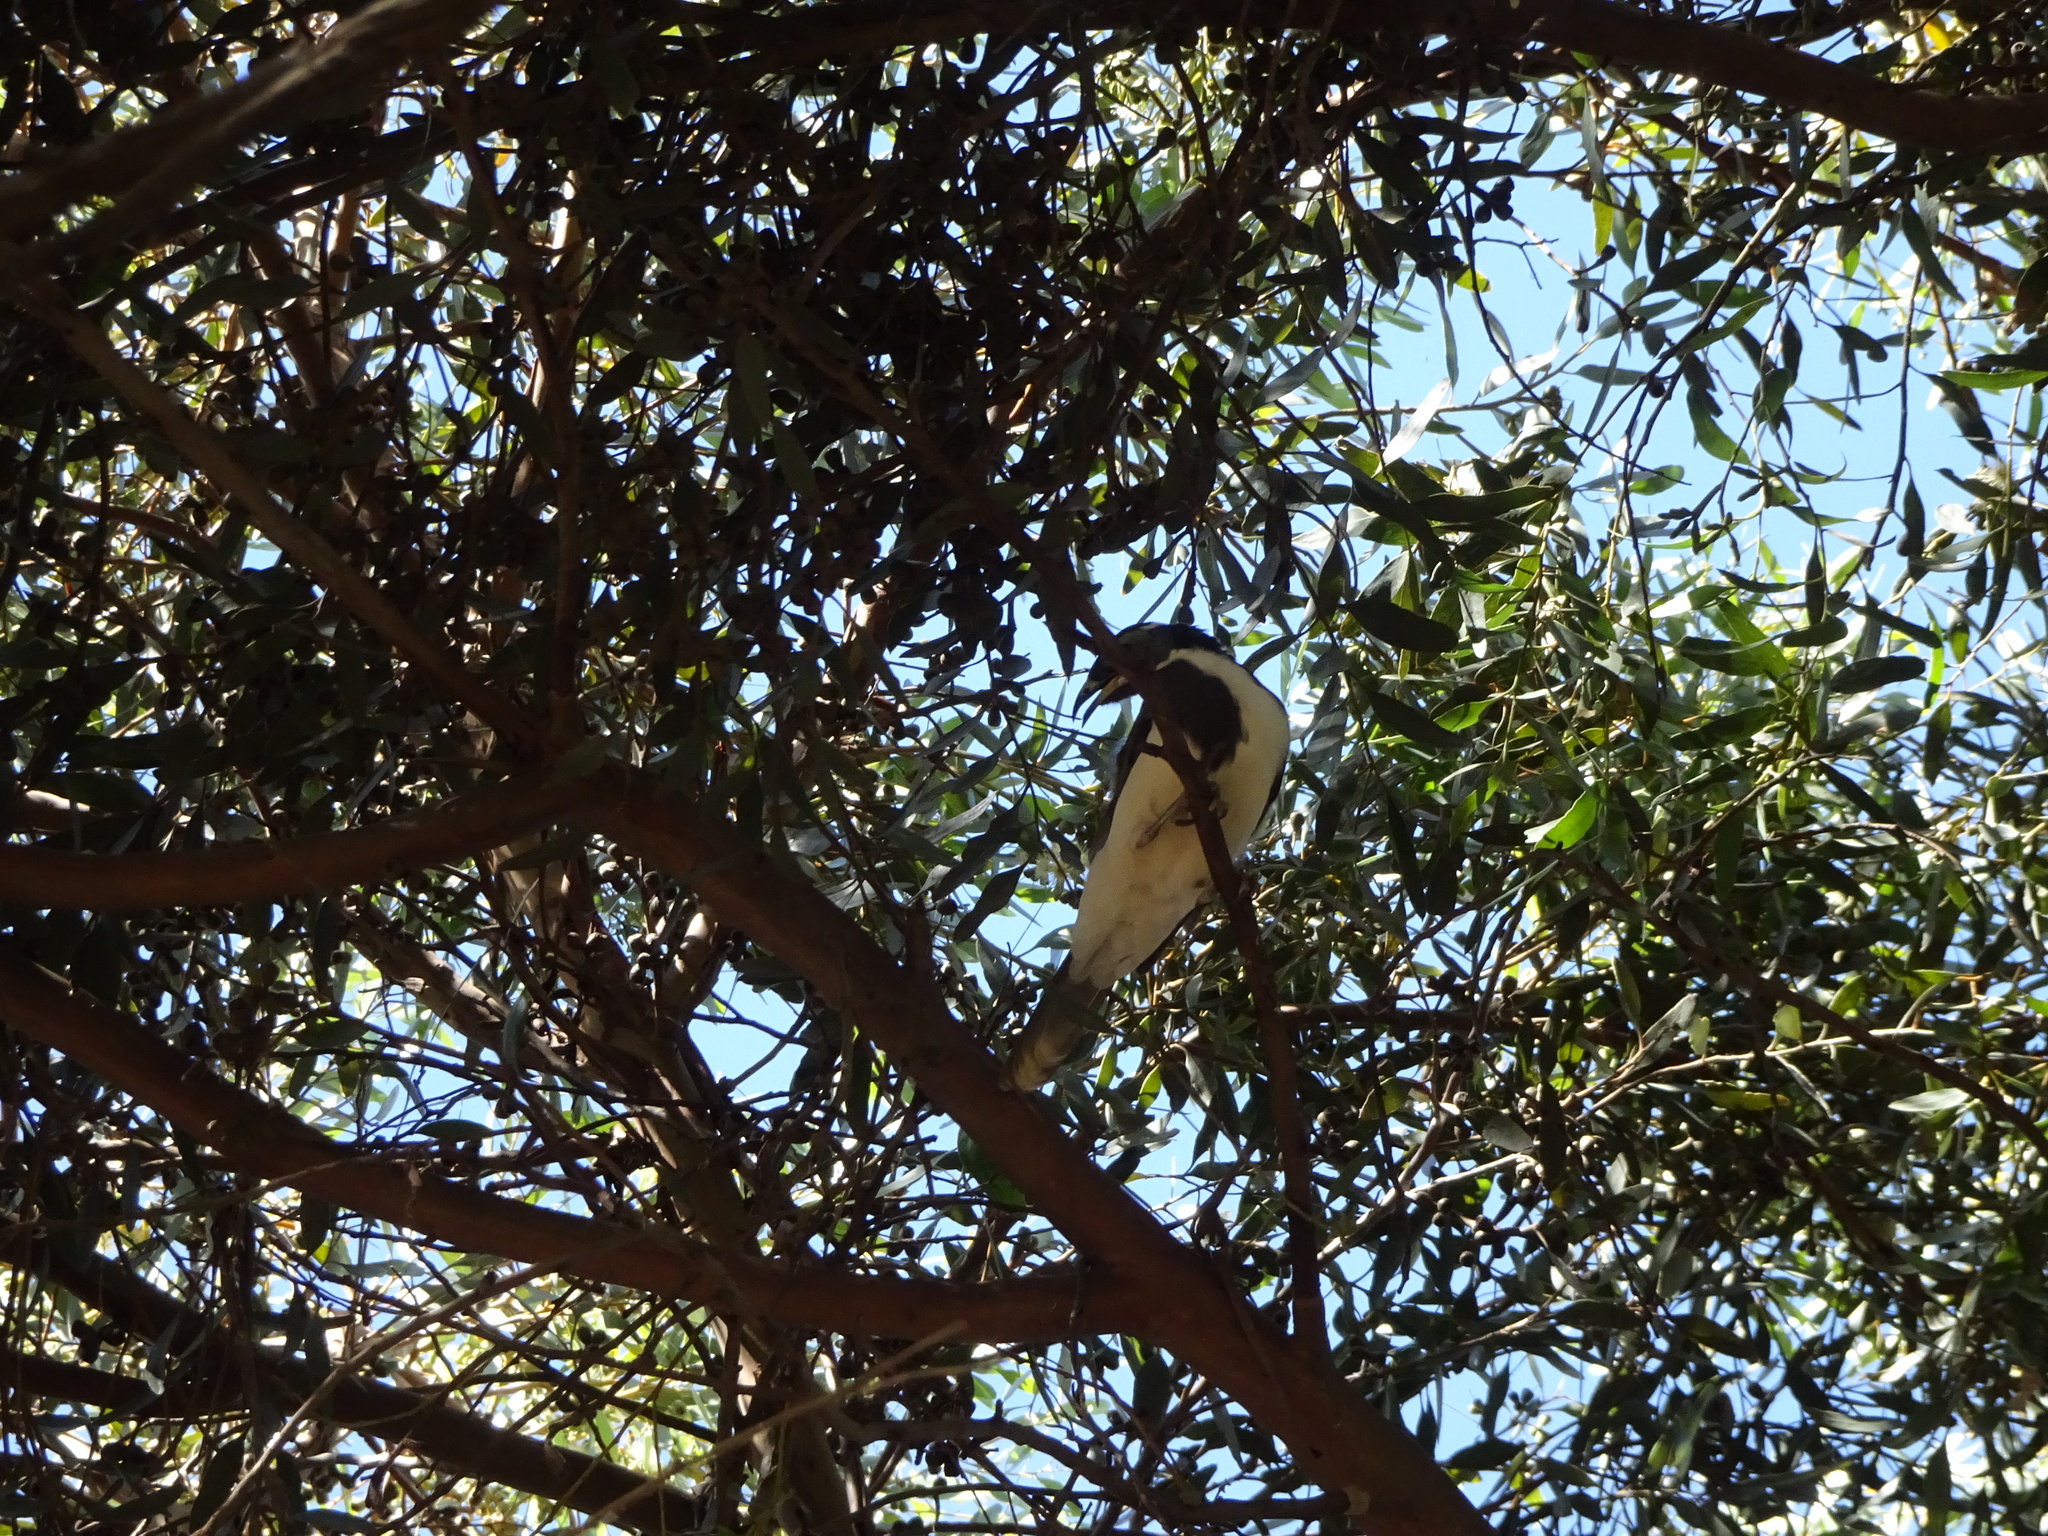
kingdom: Animalia
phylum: Chordata
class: Aves
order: Passeriformes
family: Meliphagidae
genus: Entomyzon
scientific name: Entomyzon cyanotis
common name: Blue-faced honeyeater
